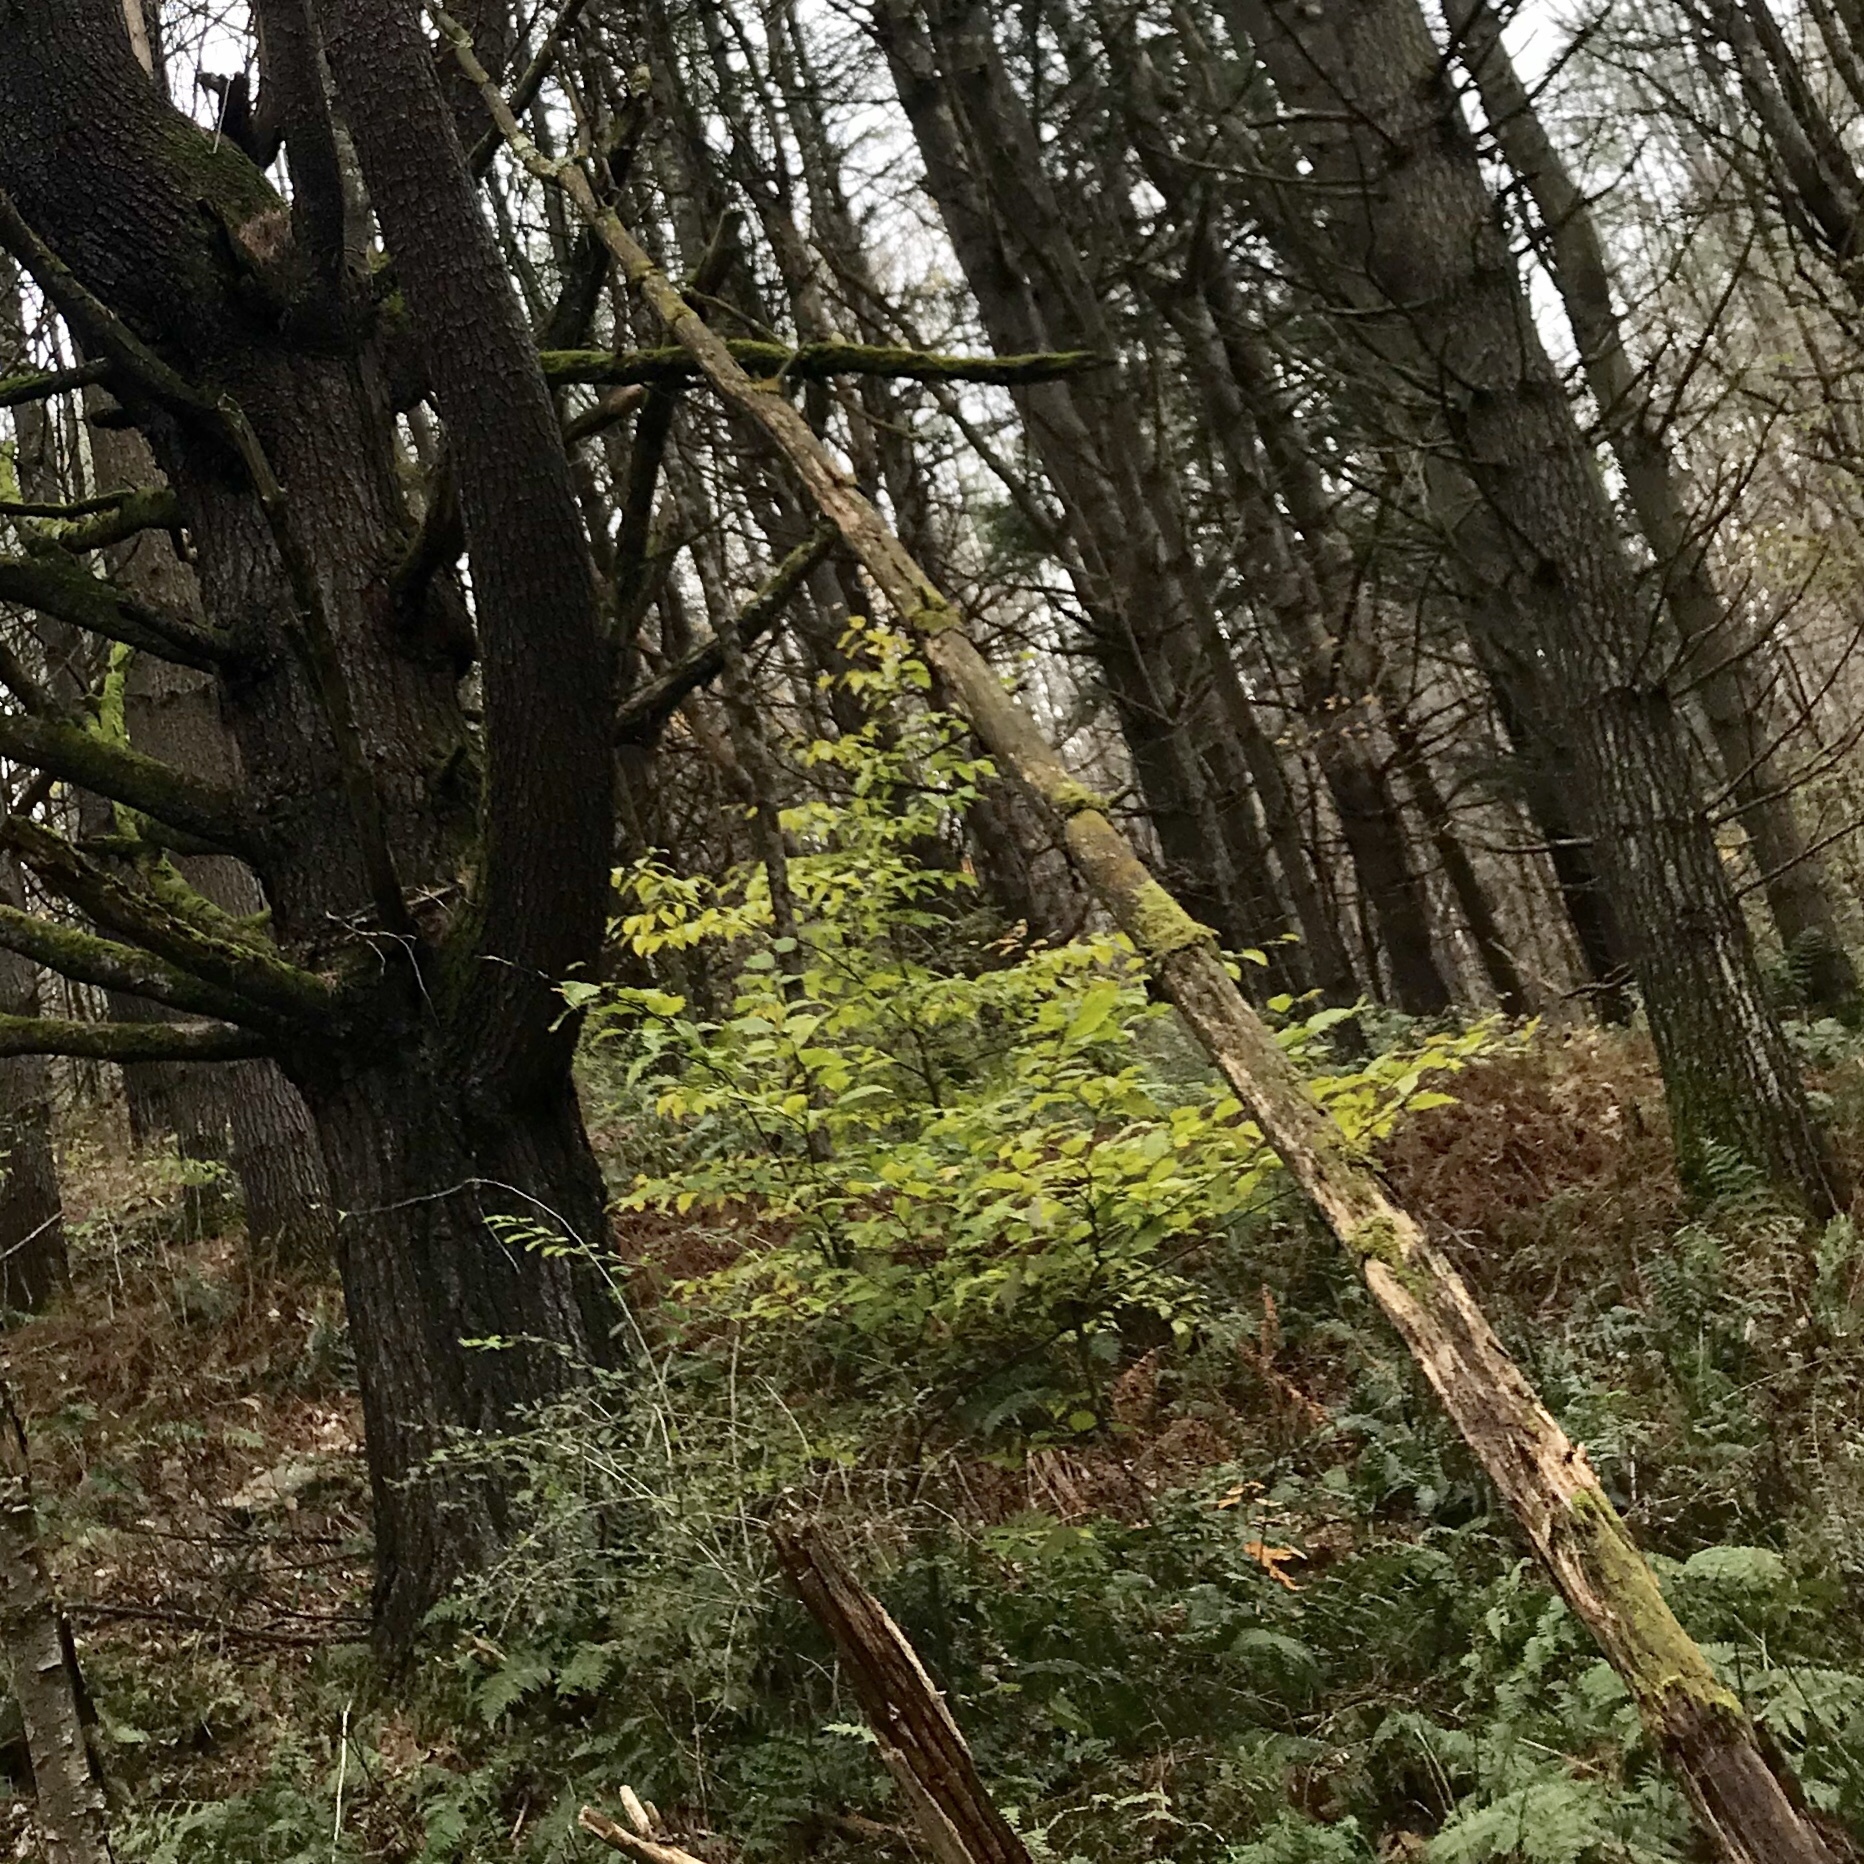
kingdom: Plantae
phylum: Tracheophyta
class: Magnoliopsida
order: Fagales
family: Fagaceae
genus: Fagus
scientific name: Fagus grandifolia
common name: American beech
